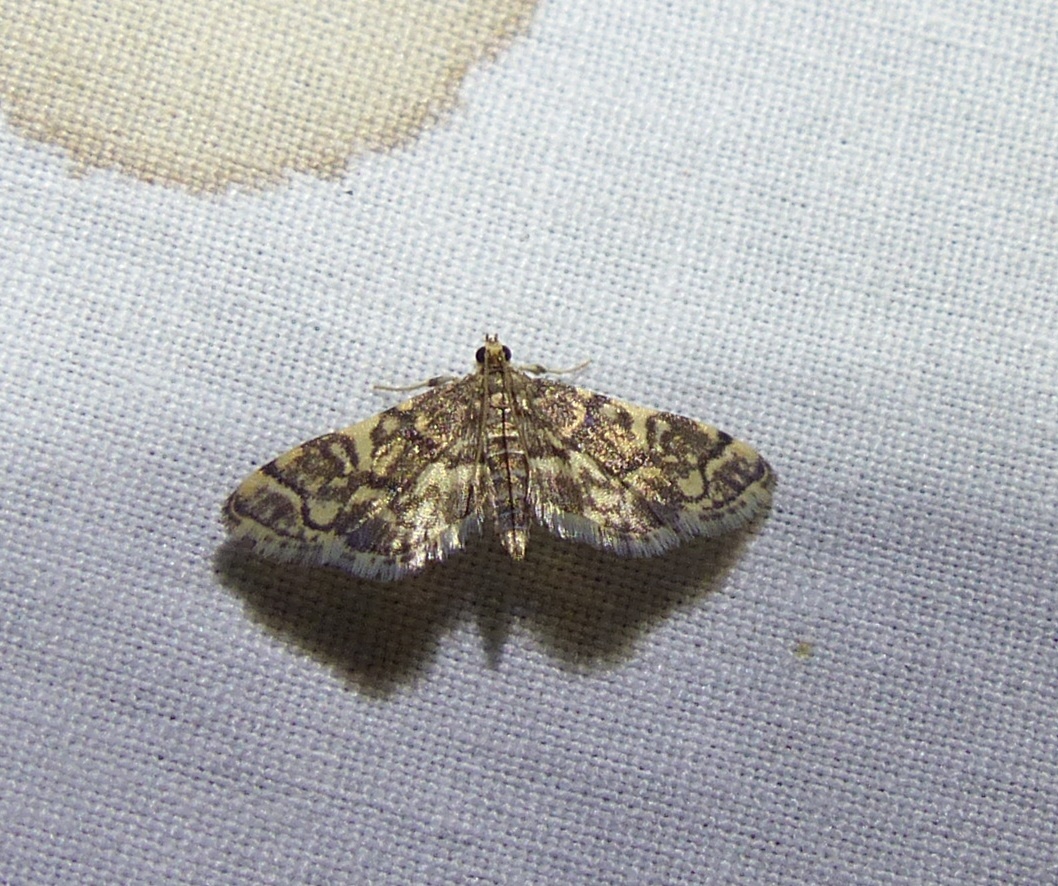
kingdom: Animalia
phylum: Arthropoda
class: Insecta
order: Lepidoptera
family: Crambidae
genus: Anageshna
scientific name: Anageshna primordialis
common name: Yellow-spotted webworm moth
